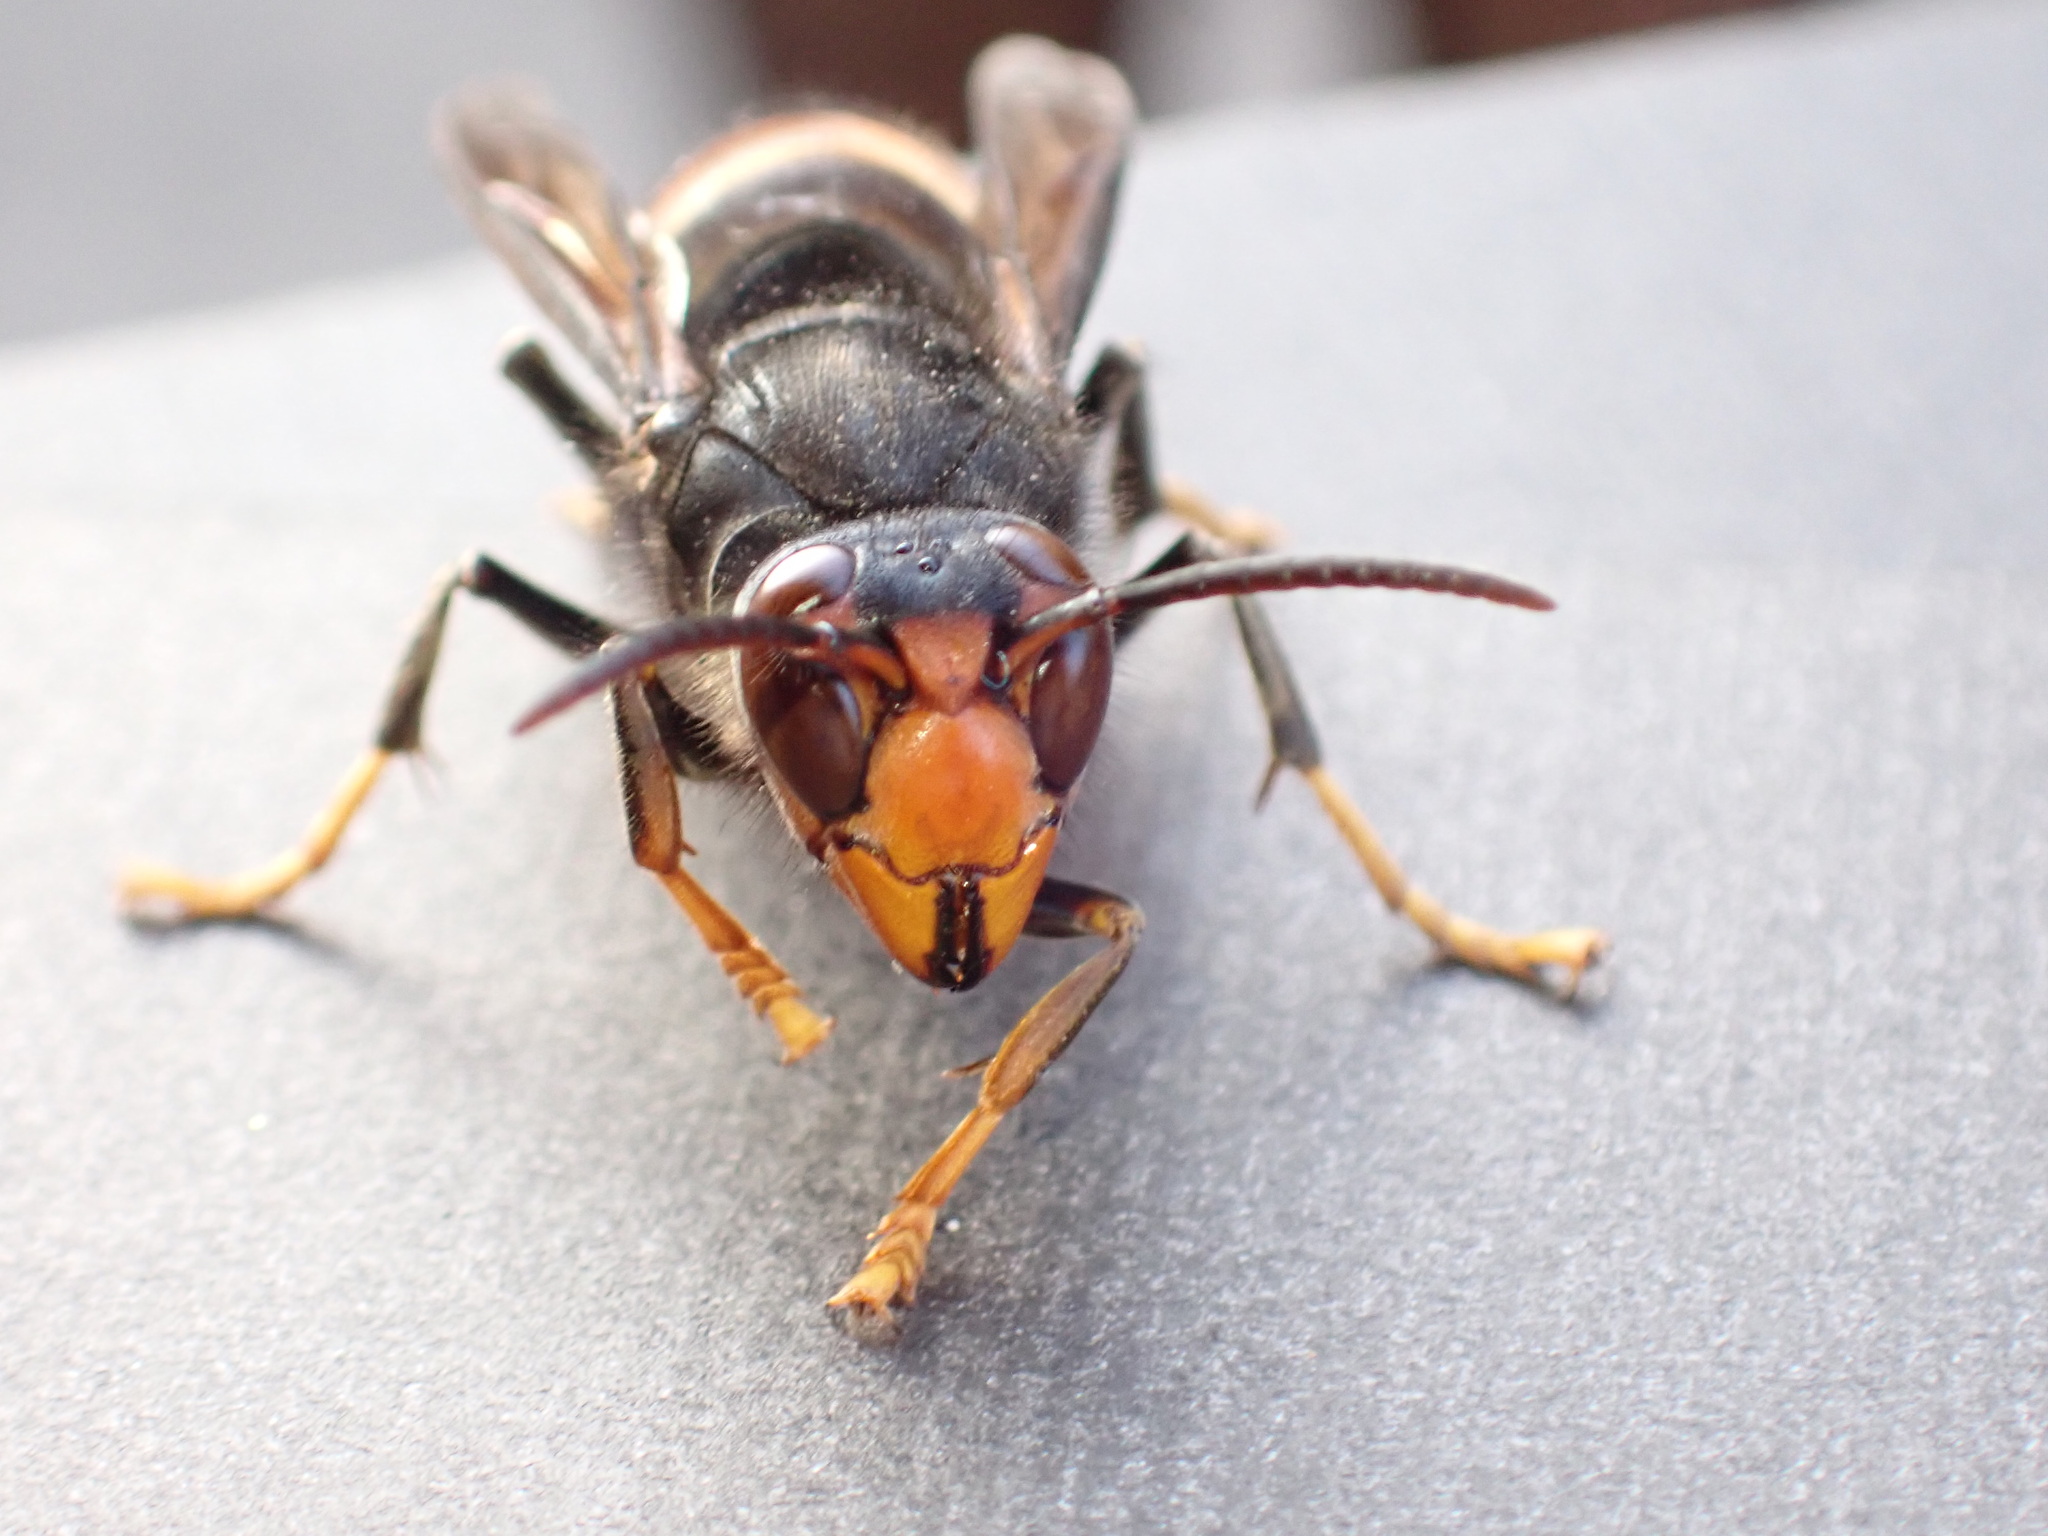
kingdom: Animalia
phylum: Arthropoda
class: Insecta
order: Hymenoptera
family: Vespidae
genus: Vespa
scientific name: Vespa velutina
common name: Asian hornet
